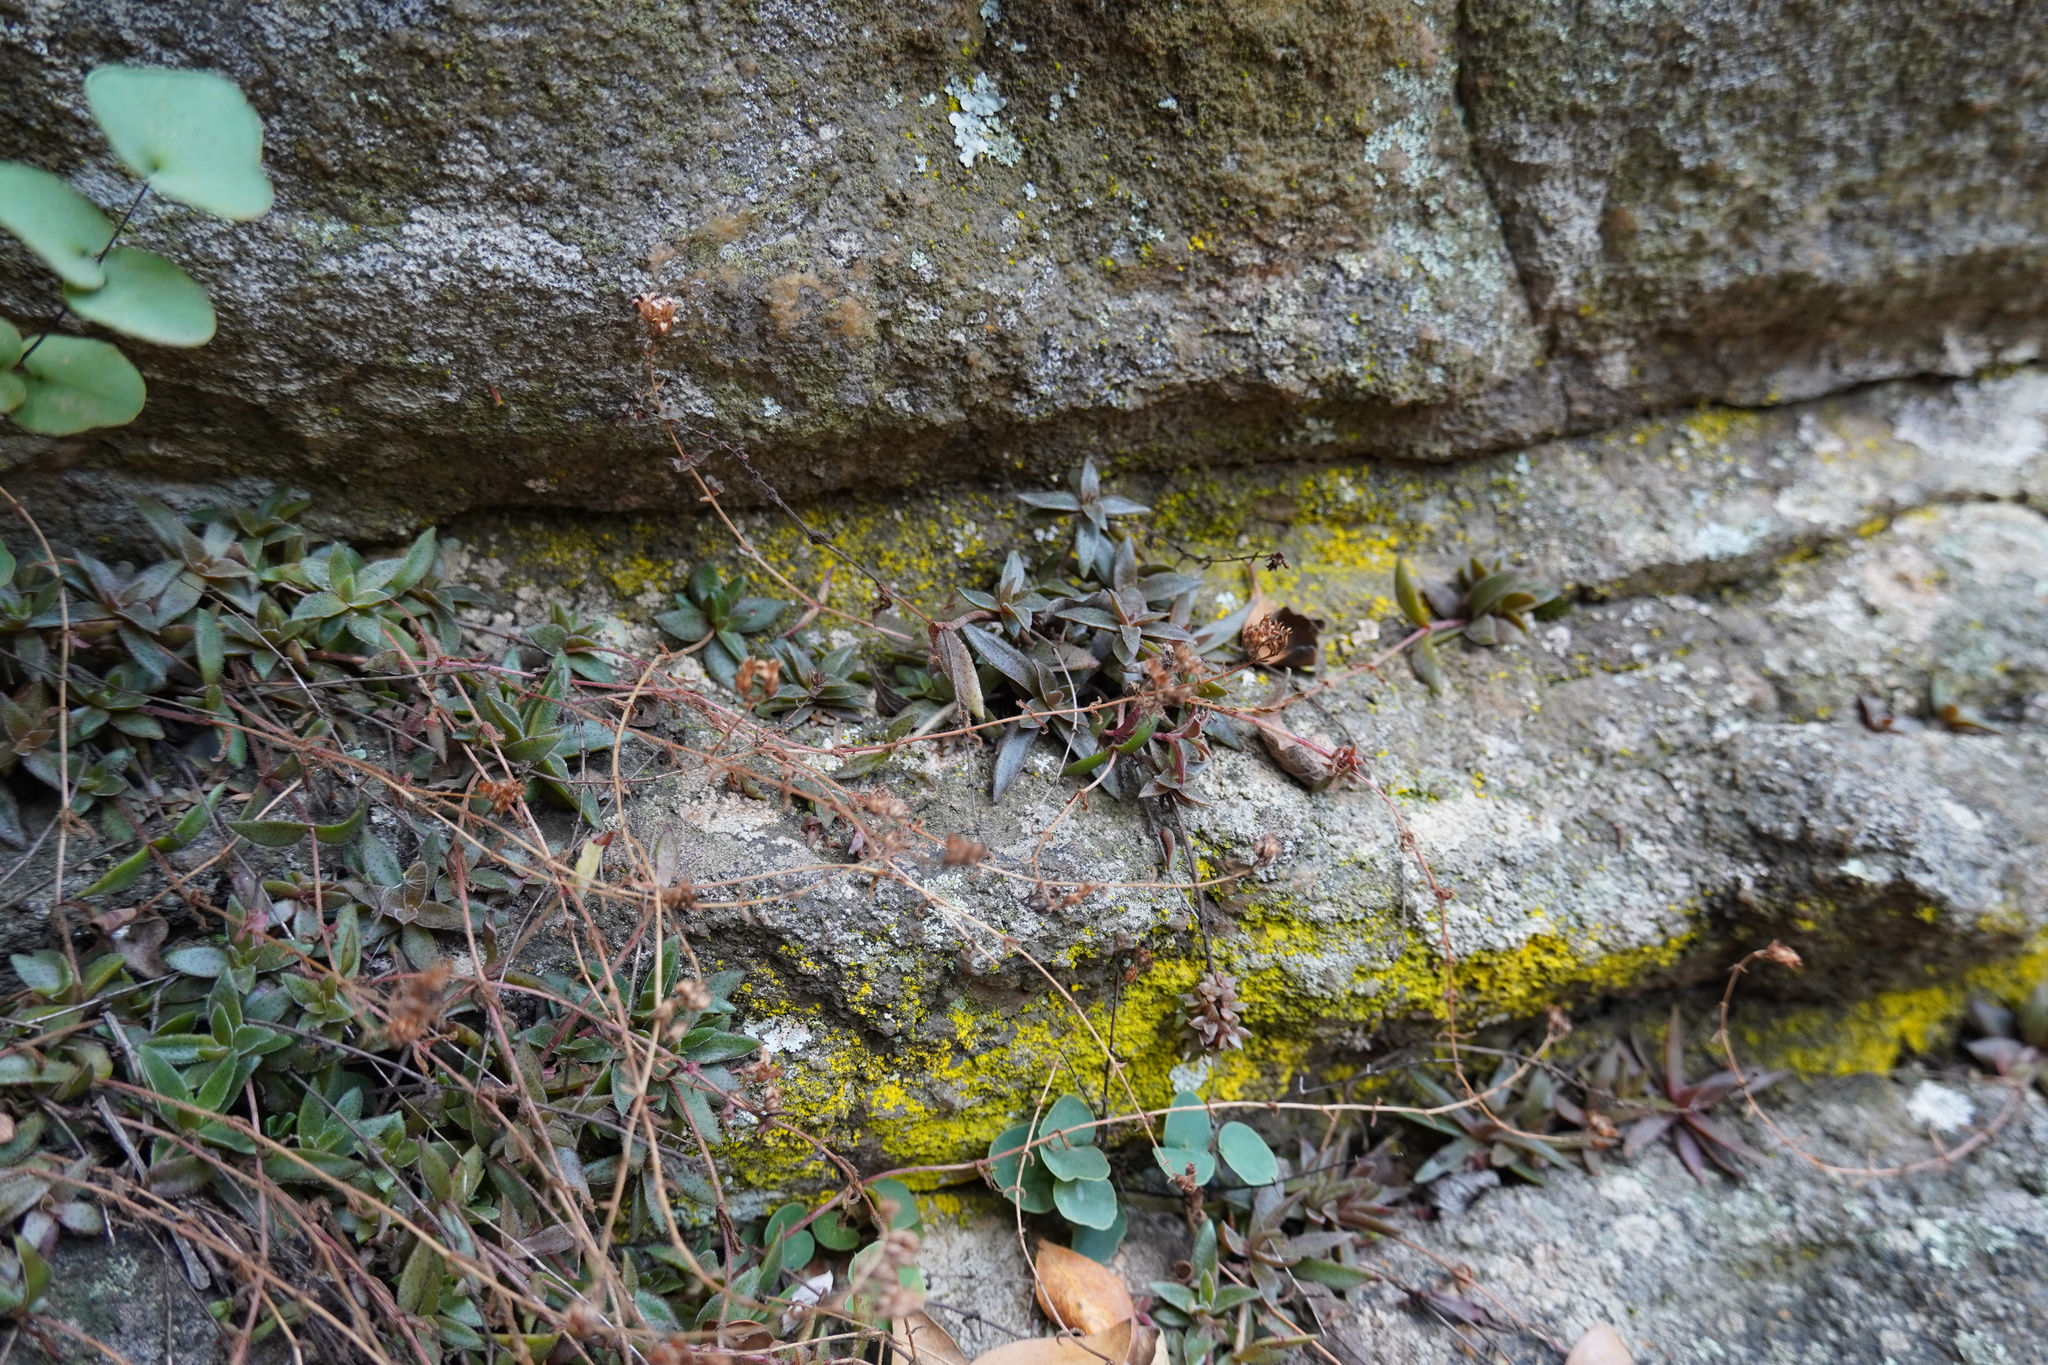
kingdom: Plantae
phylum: Tracheophyta
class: Magnoliopsida
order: Saxifragales
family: Crassulaceae
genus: Crassula
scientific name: Crassula setulosa
